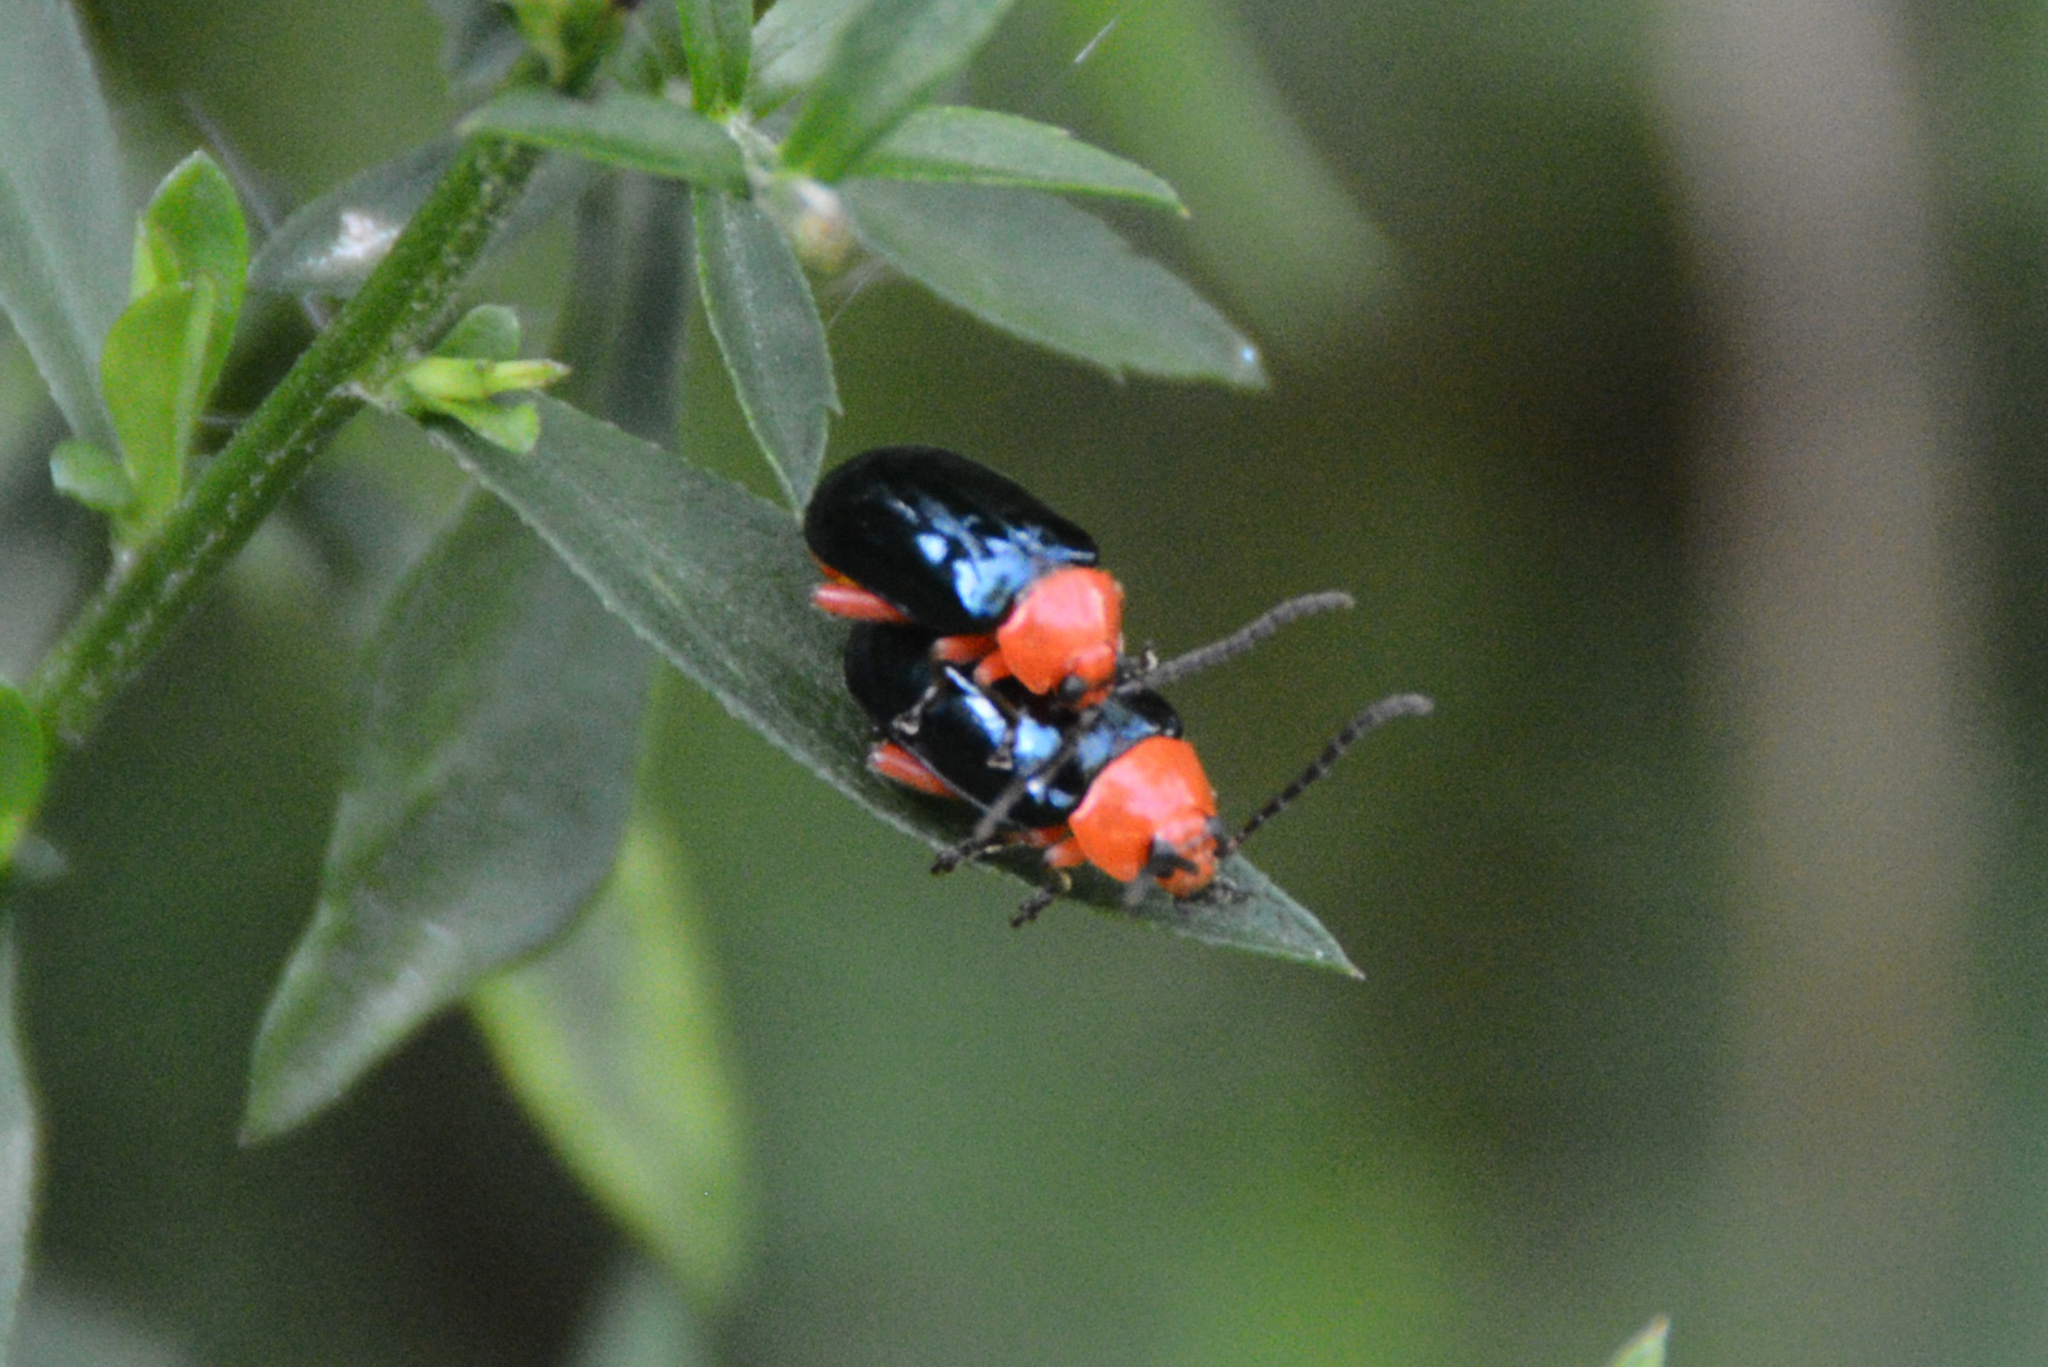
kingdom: Animalia
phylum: Arthropoda
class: Insecta
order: Coleoptera
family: Chrysomelidae
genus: Asphaera
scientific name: Asphaera lustrans
